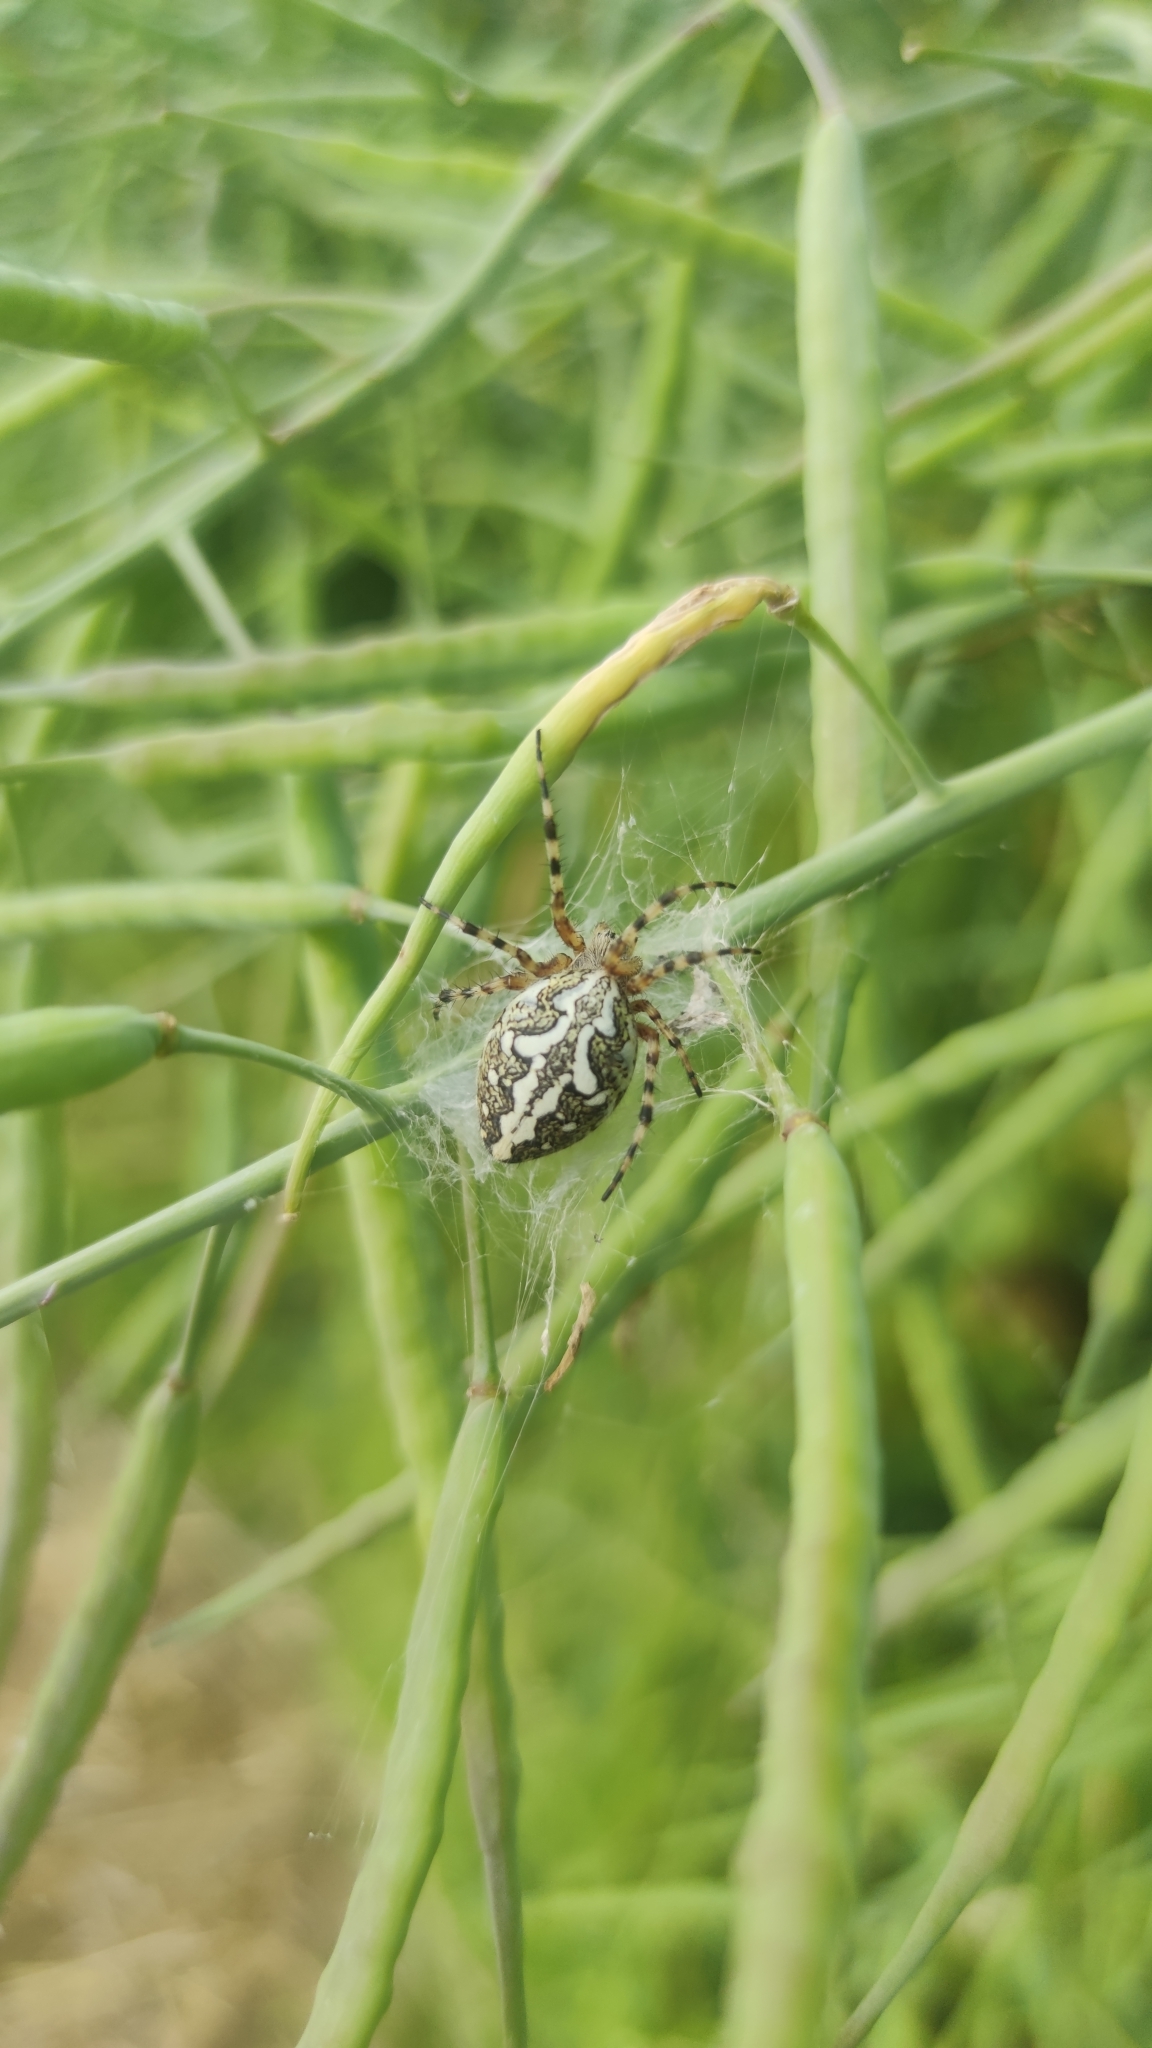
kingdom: Animalia
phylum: Arthropoda
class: Arachnida
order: Araneae
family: Araneidae
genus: Aculepeira
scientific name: Aculepeira ceropegia
